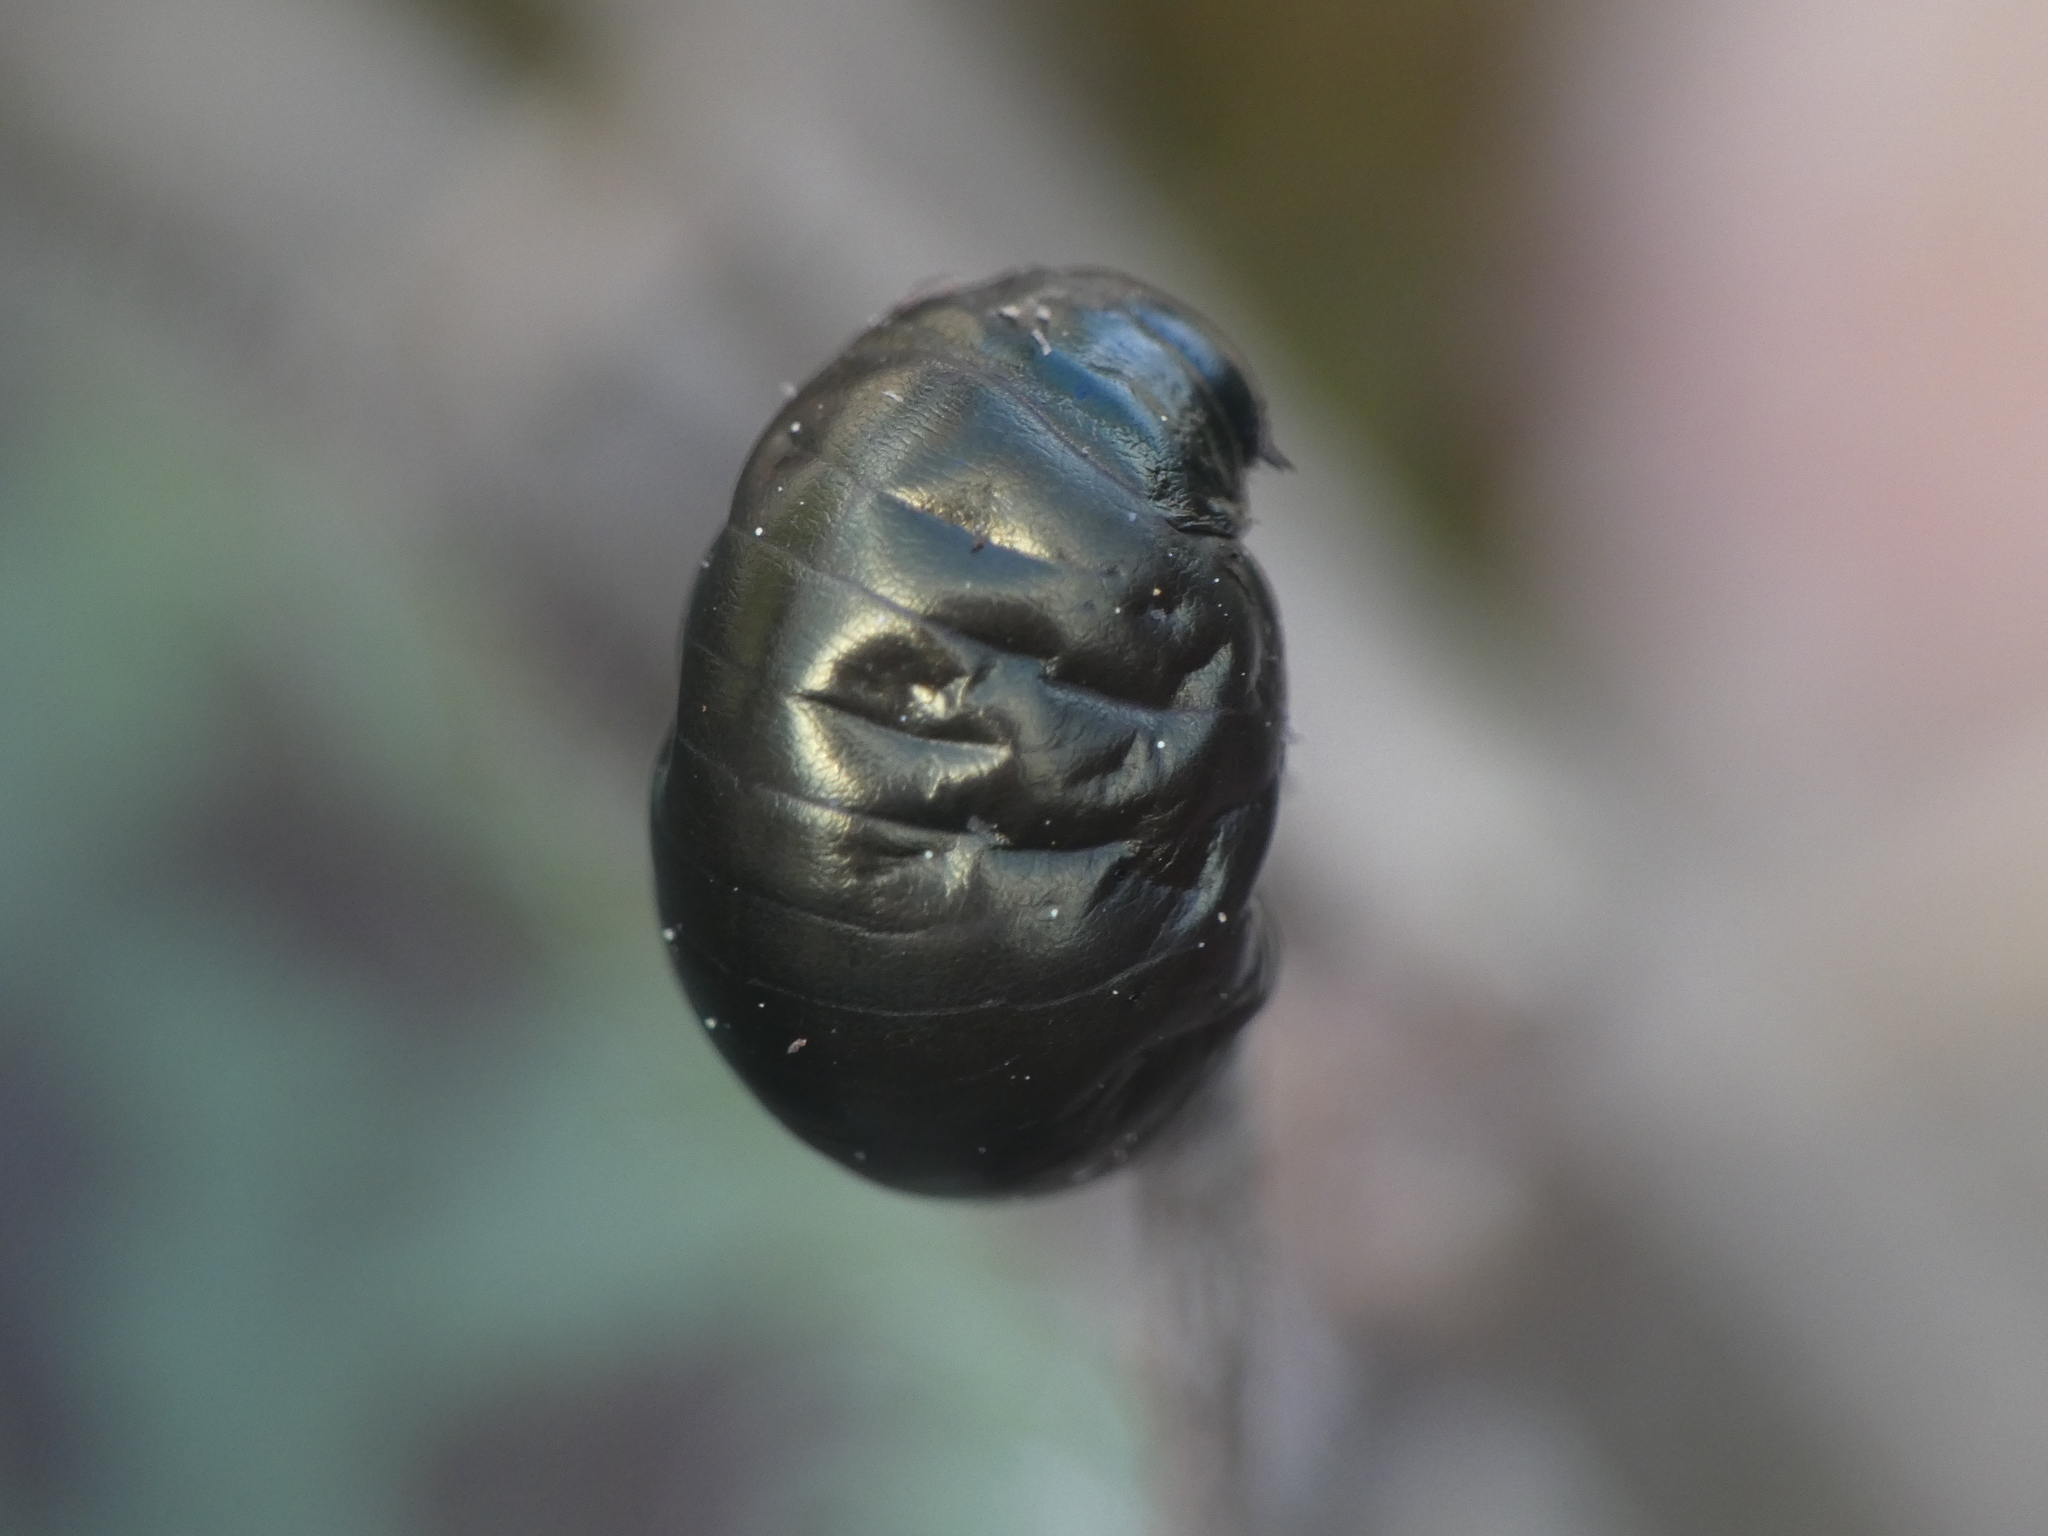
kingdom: Animalia
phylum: Arthropoda
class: Insecta
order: Coleoptera
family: Chrysomelidae
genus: Timarcha
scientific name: Timarcha tenebricosa
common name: Bloody-nosed beetle
